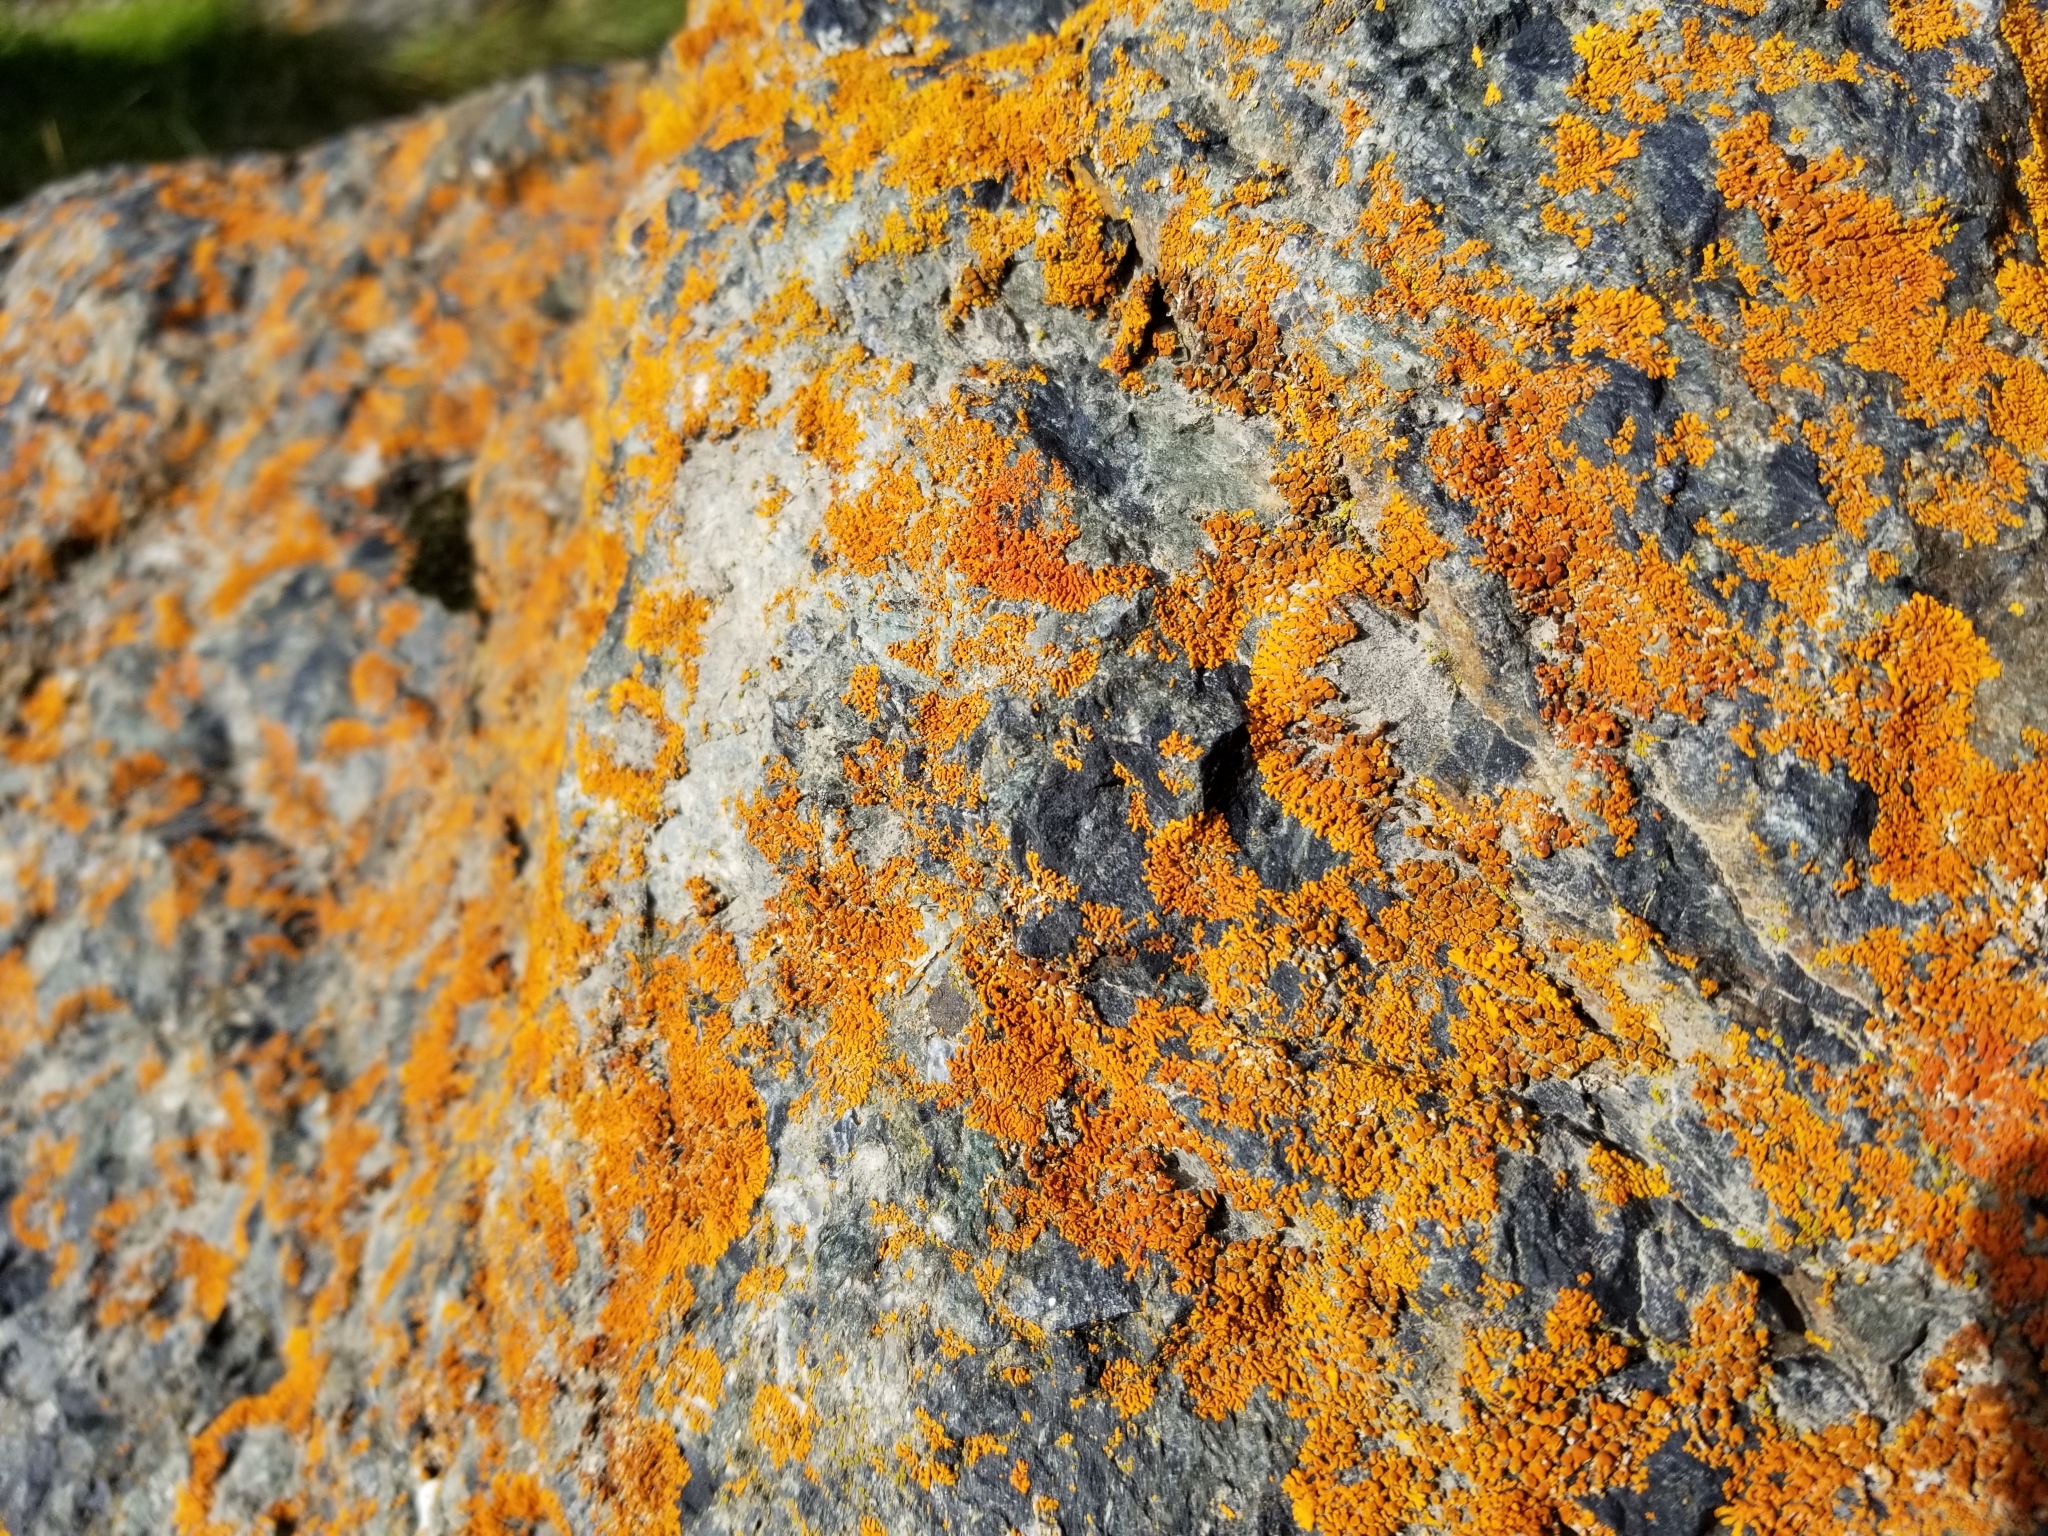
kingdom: Fungi
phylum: Ascomycota
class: Lecanoromycetes
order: Teloschistales
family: Teloschistaceae
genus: Xanthoria
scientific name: Xanthoria elegans
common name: Elegant sunburst lichen
